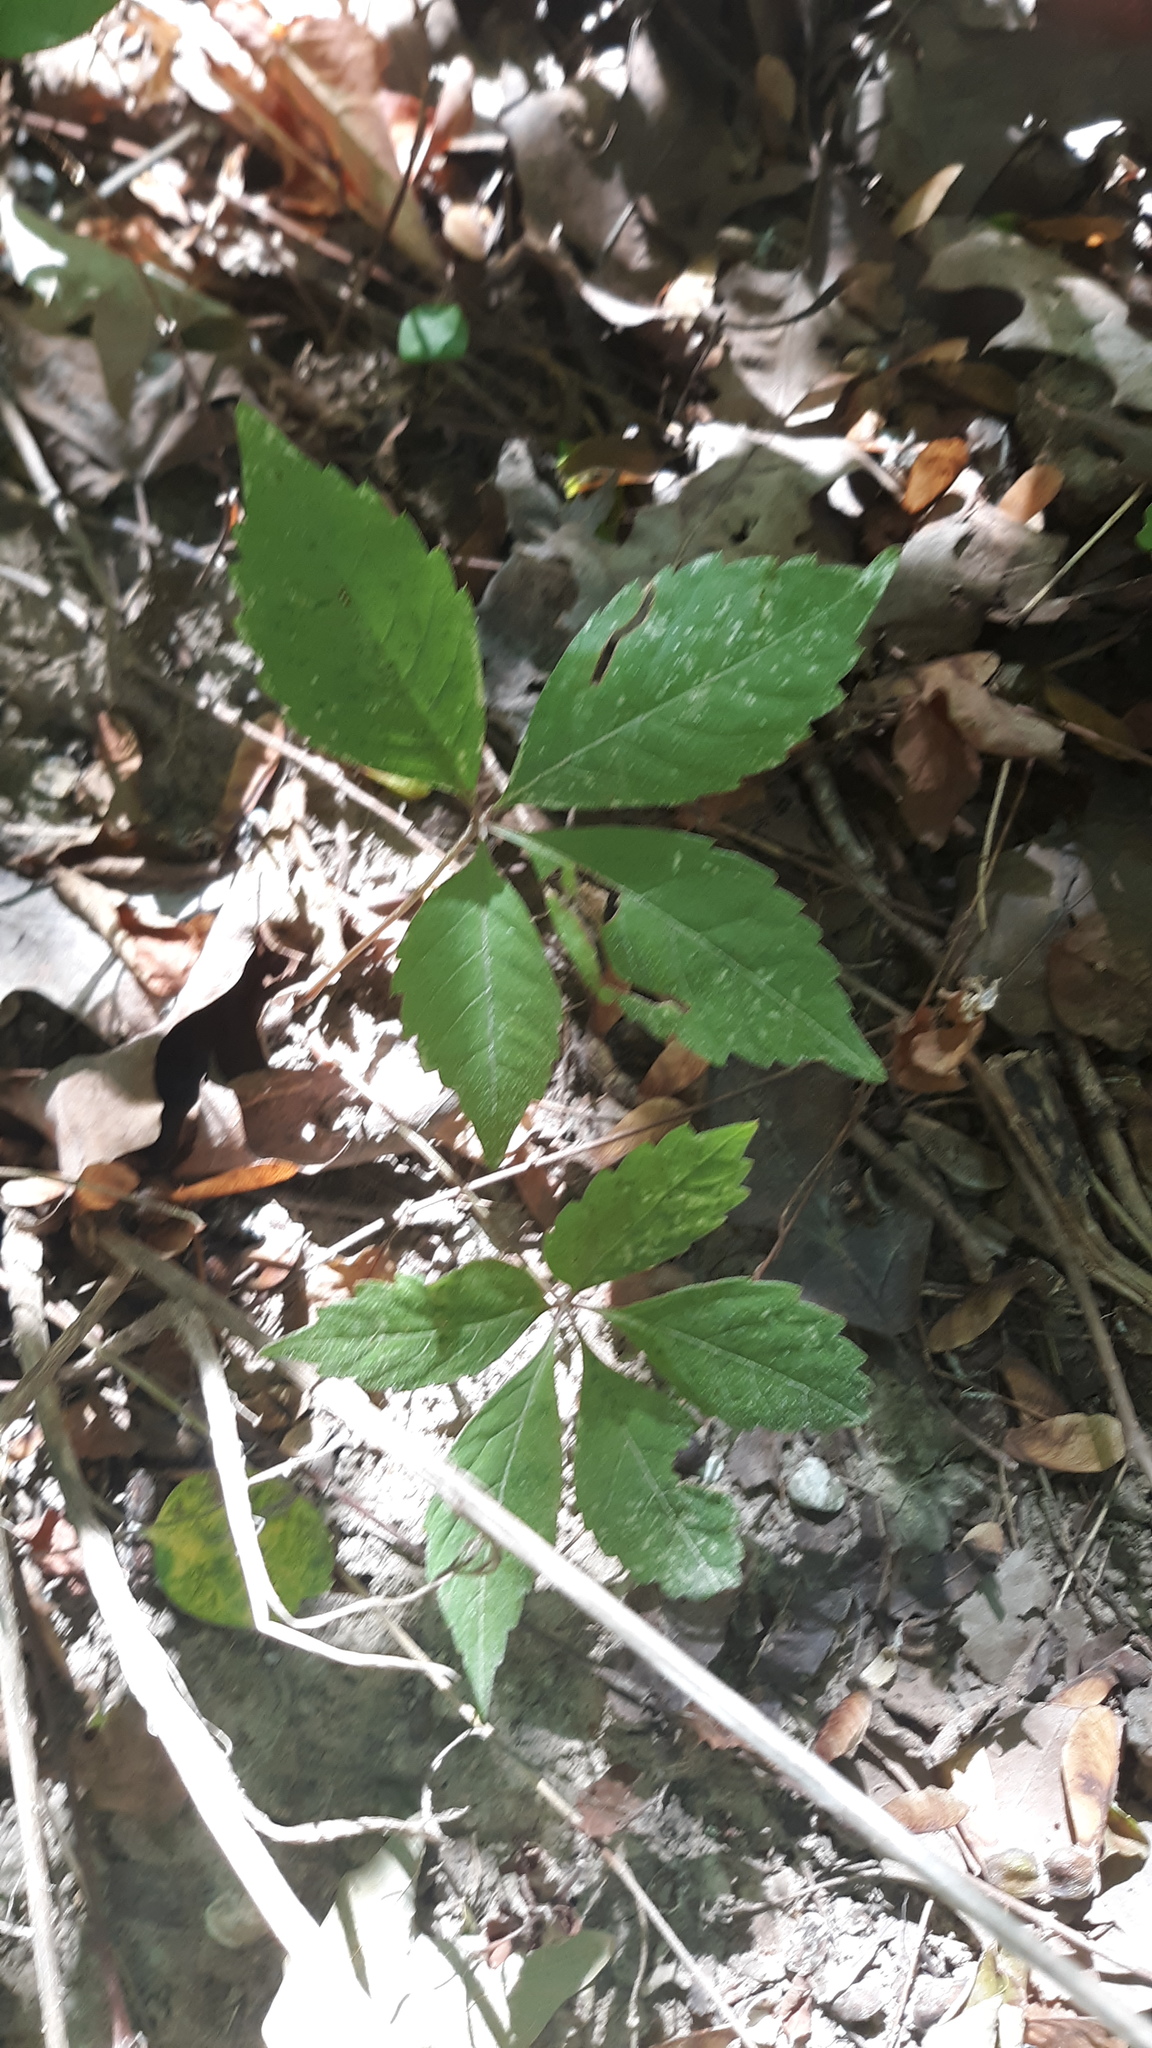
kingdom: Plantae
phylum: Tracheophyta
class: Magnoliopsida
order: Vitales
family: Vitaceae
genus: Parthenocissus
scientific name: Parthenocissus quinquefolia
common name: Virginia-creeper
